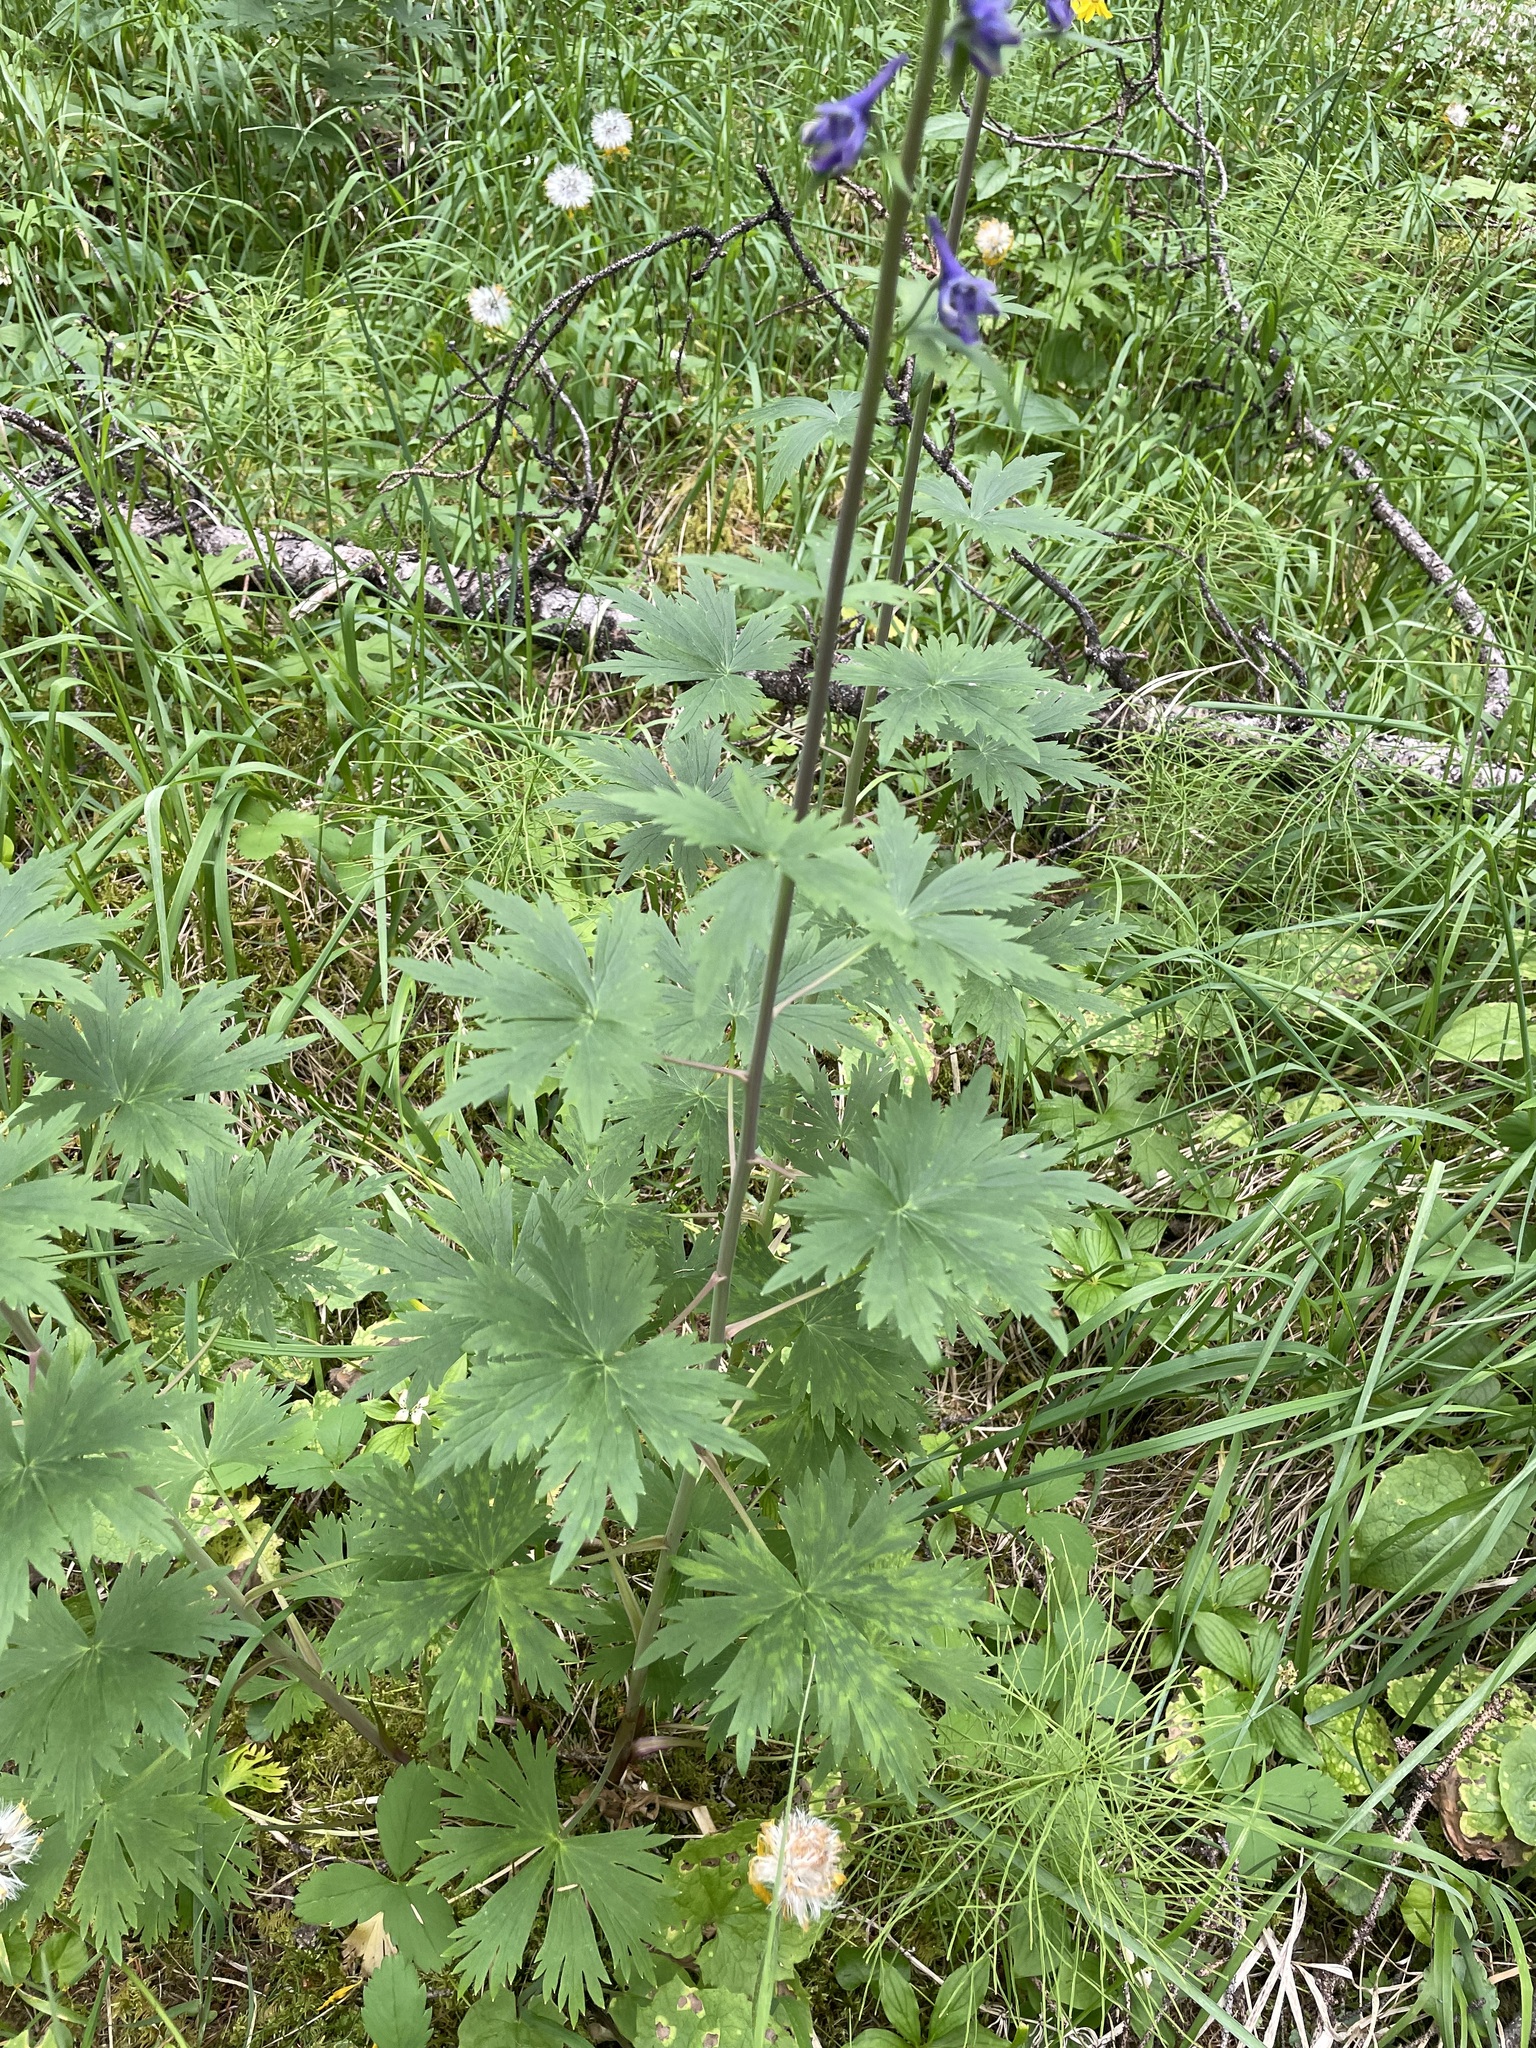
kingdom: Plantae
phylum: Tracheophyta
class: Magnoliopsida
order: Ranunculales
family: Ranunculaceae
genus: Delphinium
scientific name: Delphinium glaucum
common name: Brown's larkspur
